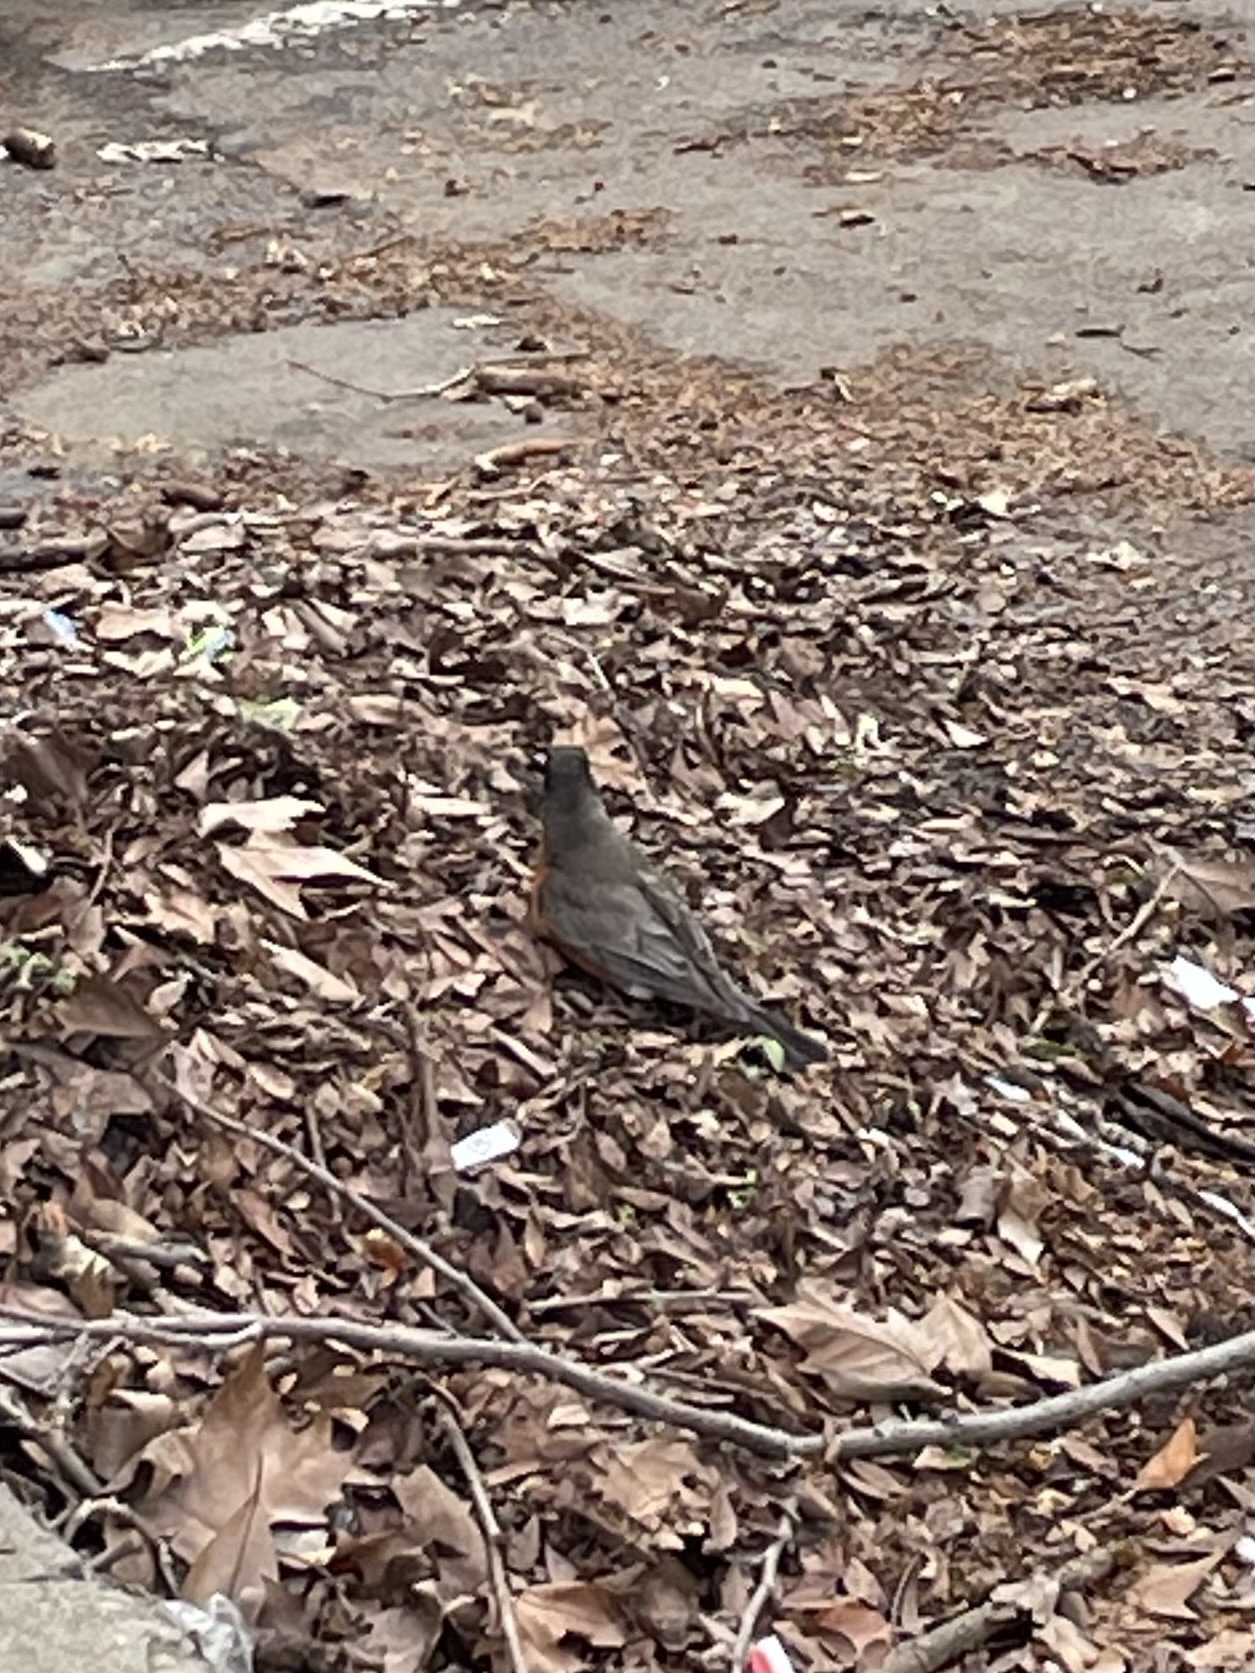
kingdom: Animalia
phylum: Chordata
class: Aves
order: Passeriformes
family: Turdidae
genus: Turdus
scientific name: Turdus migratorius
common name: American robin
